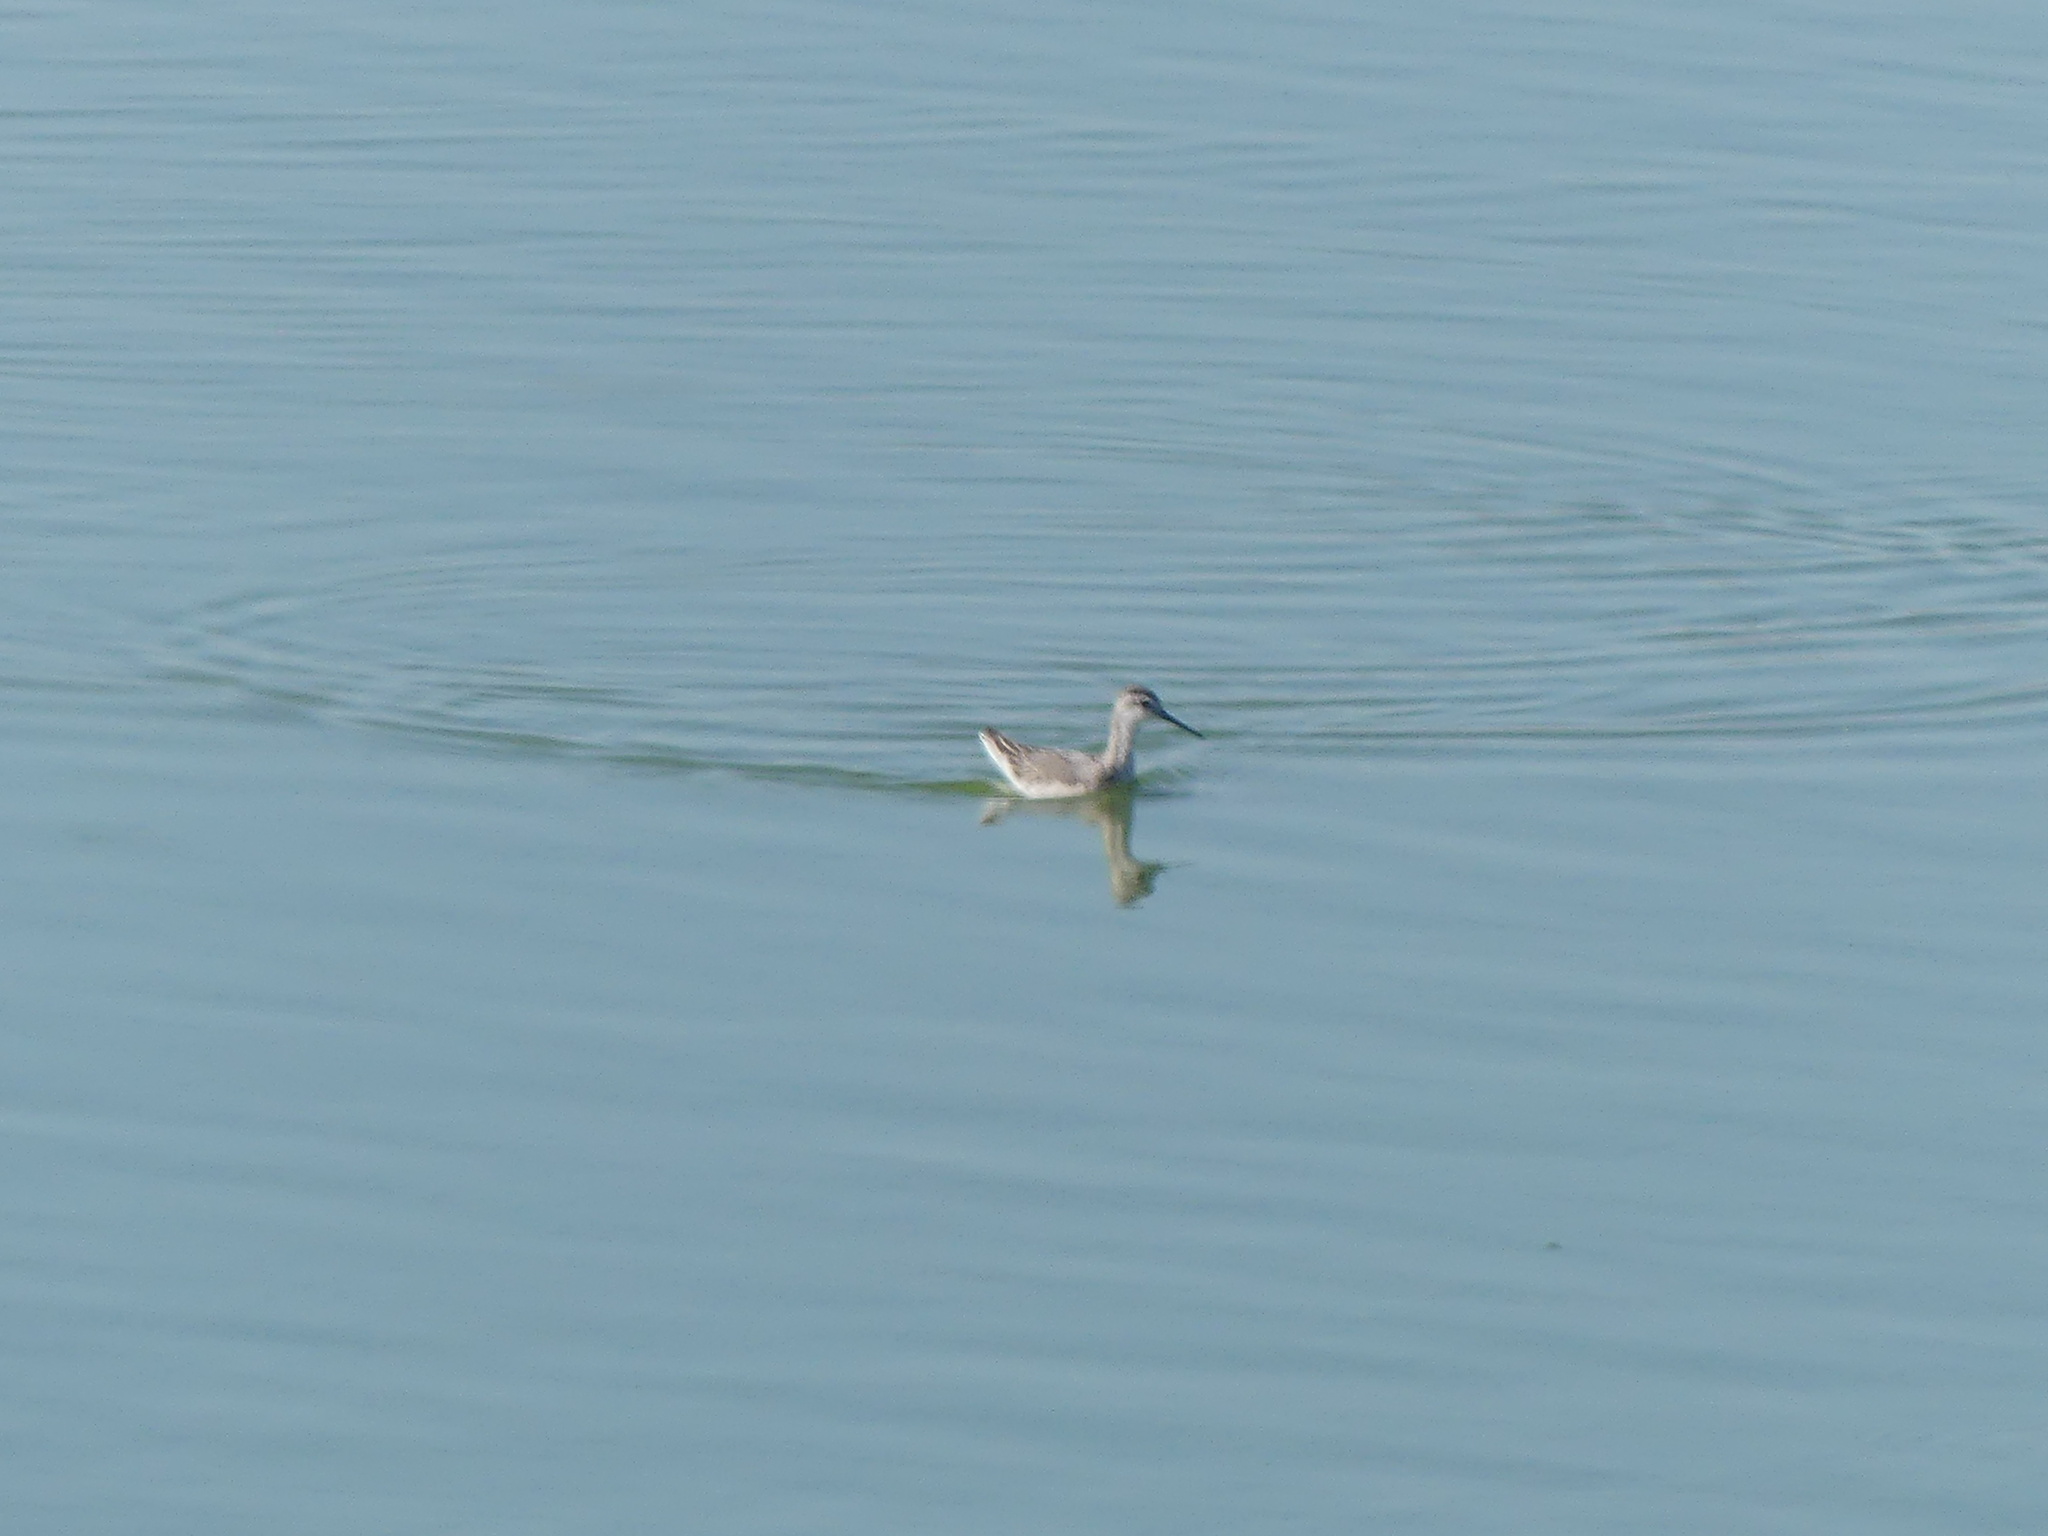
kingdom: Animalia
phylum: Chordata
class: Aves
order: Charadriiformes
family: Scolopacidae
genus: Phalaropus
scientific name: Phalaropus tricolor
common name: Wilson's phalarope
